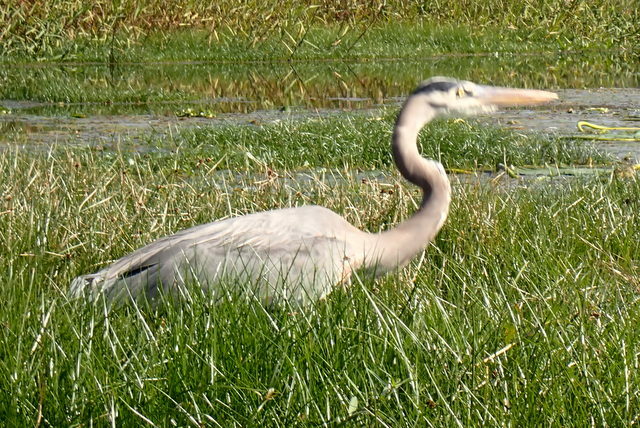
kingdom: Animalia
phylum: Chordata
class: Aves
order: Pelecaniformes
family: Ardeidae
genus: Ardea
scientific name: Ardea herodias
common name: Great blue heron
